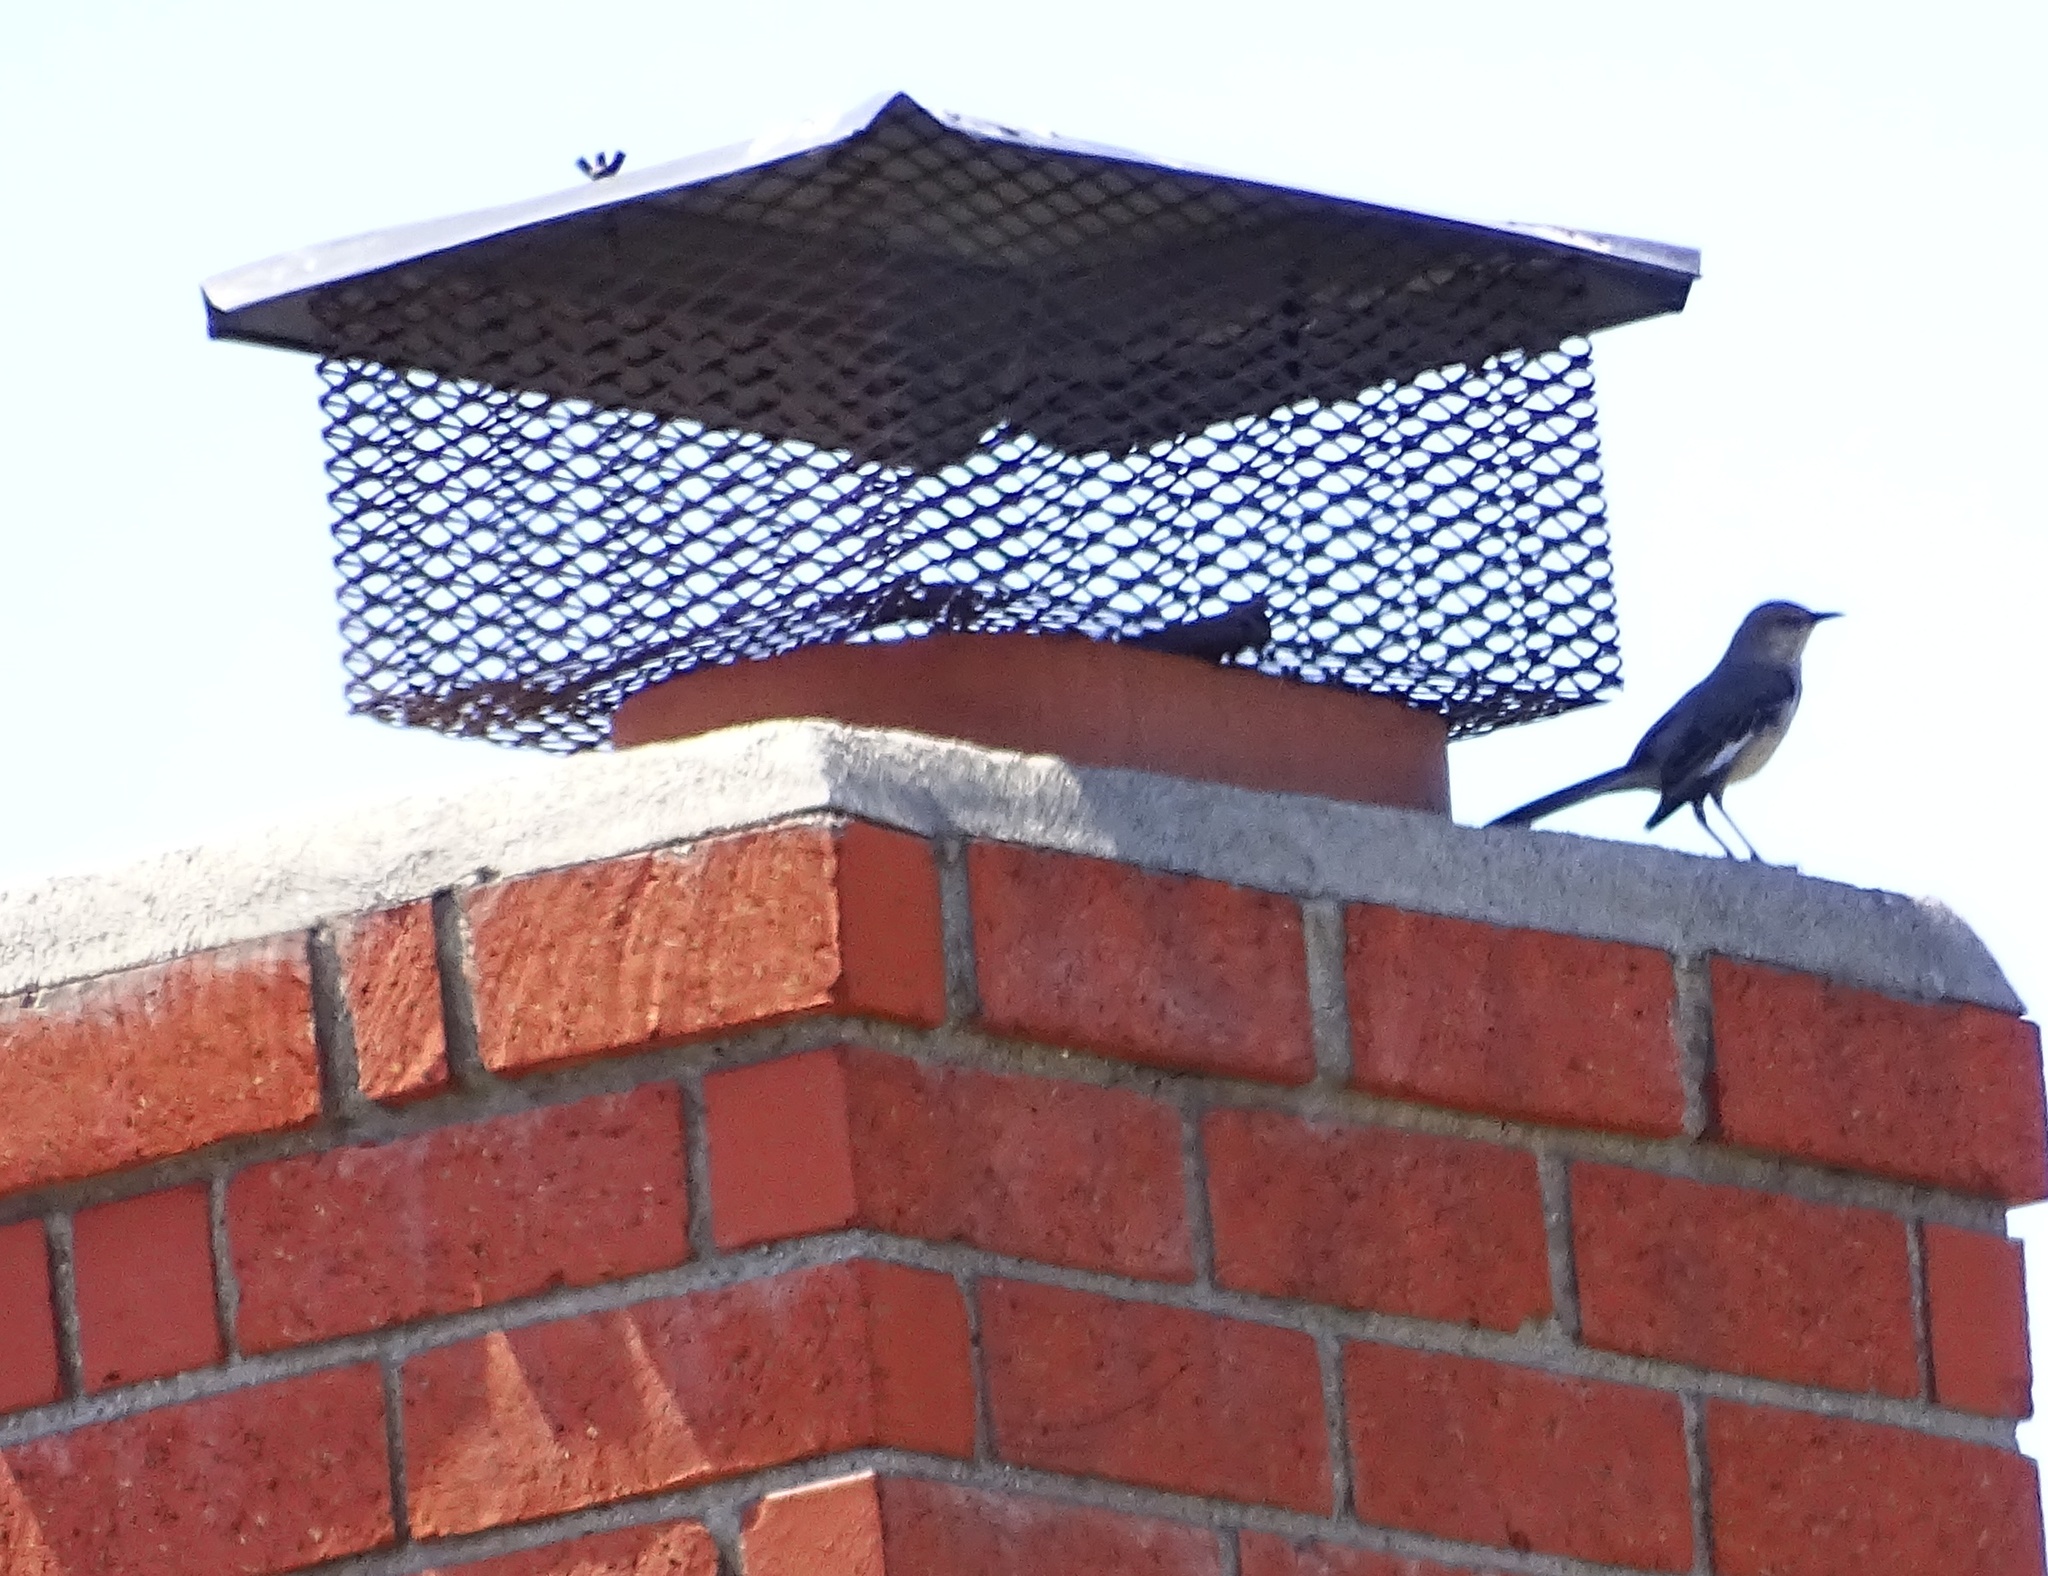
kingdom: Animalia
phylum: Chordata
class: Aves
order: Passeriformes
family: Mimidae
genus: Mimus
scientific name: Mimus polyglottos
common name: Northern mockingbird
